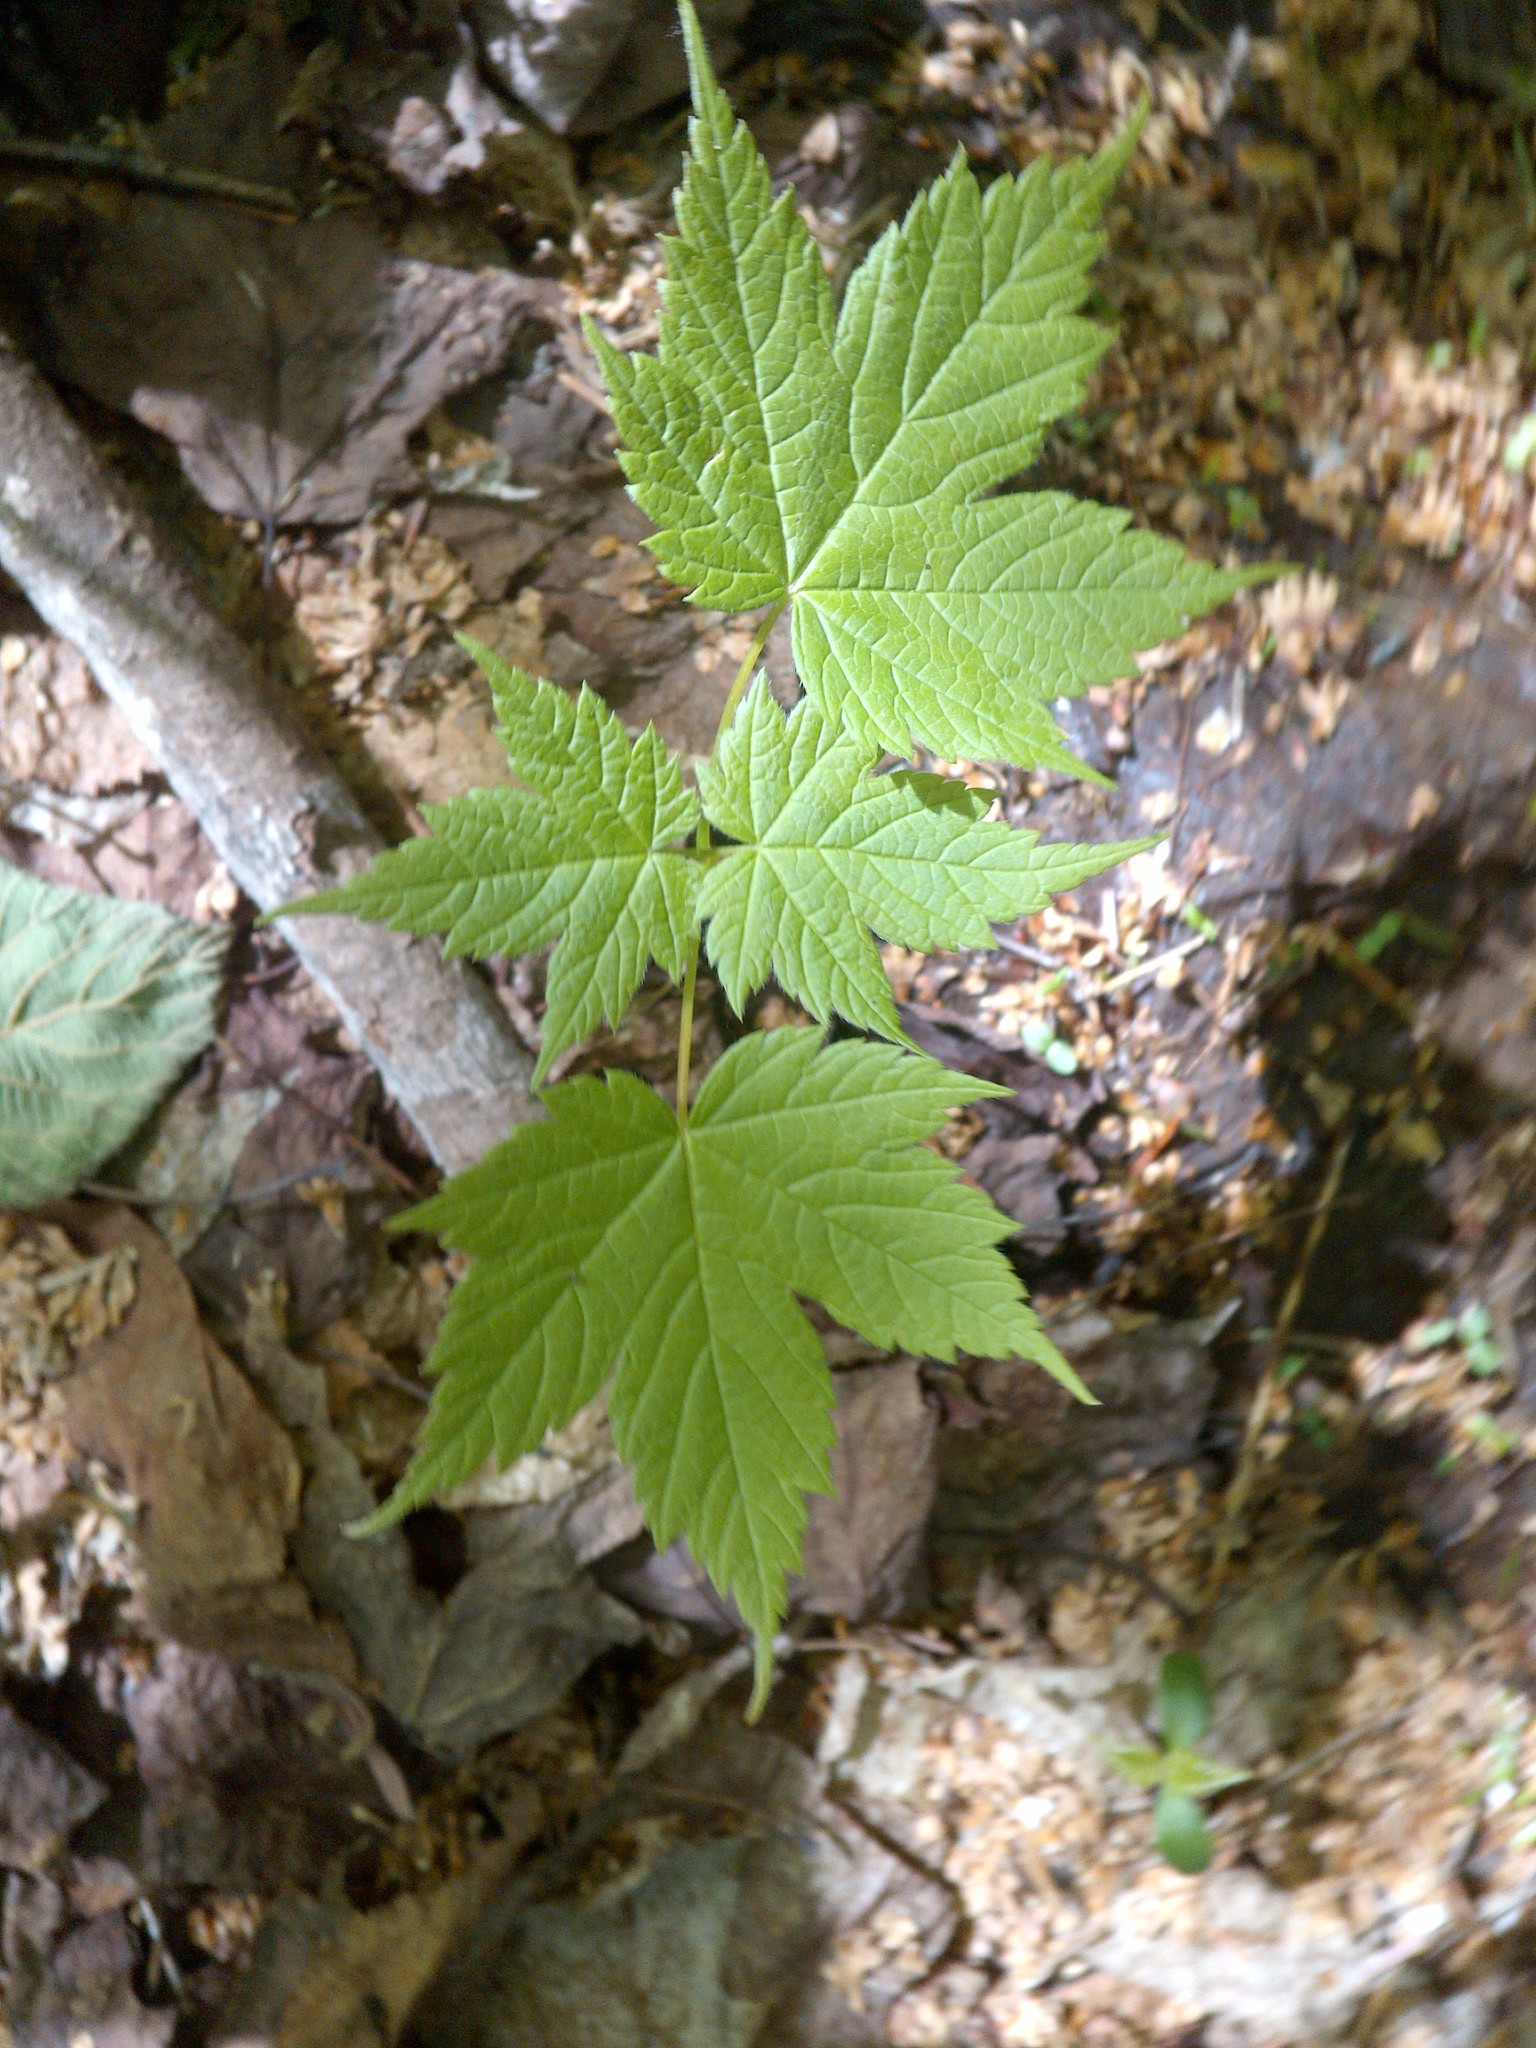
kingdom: Plantae
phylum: Tracheophyta
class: Magnoliopsida
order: Sapindales
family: Sapindaceae
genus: Acer
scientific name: Acer spicatum
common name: Mountain maple
